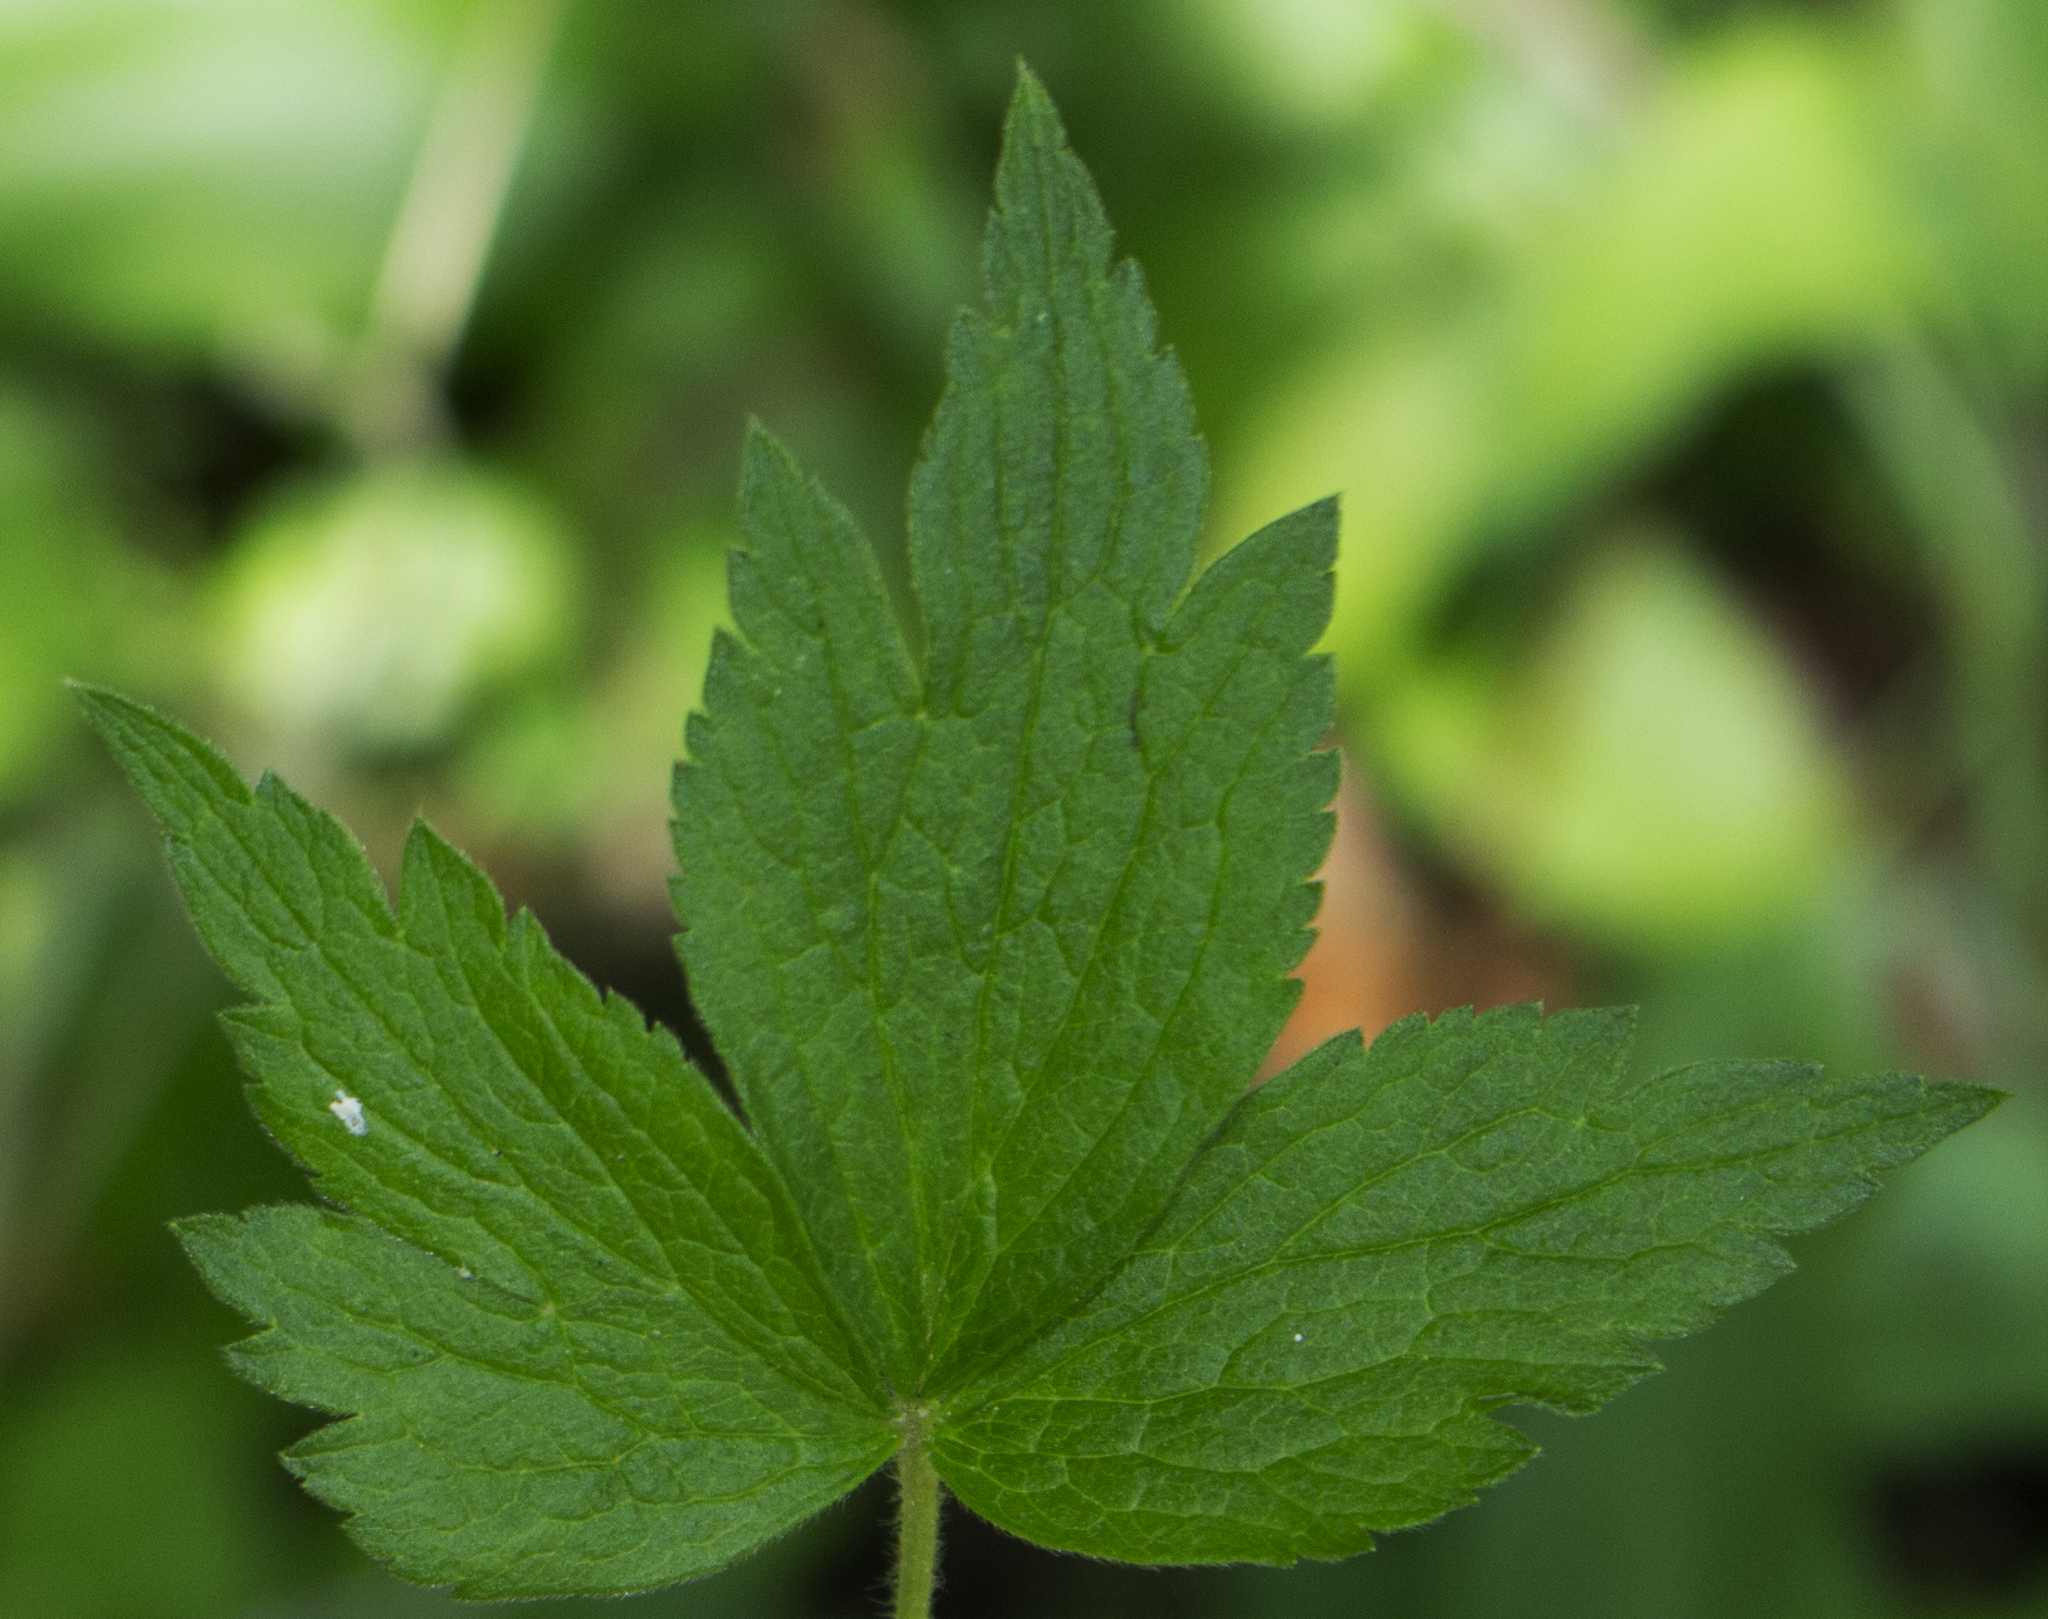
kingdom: Plantae
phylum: Tracheophyta
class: Magnoliopsida
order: Ranunculales
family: Ranunculaceae
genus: Anemone
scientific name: Anemone virginiana
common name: Tall anemone
